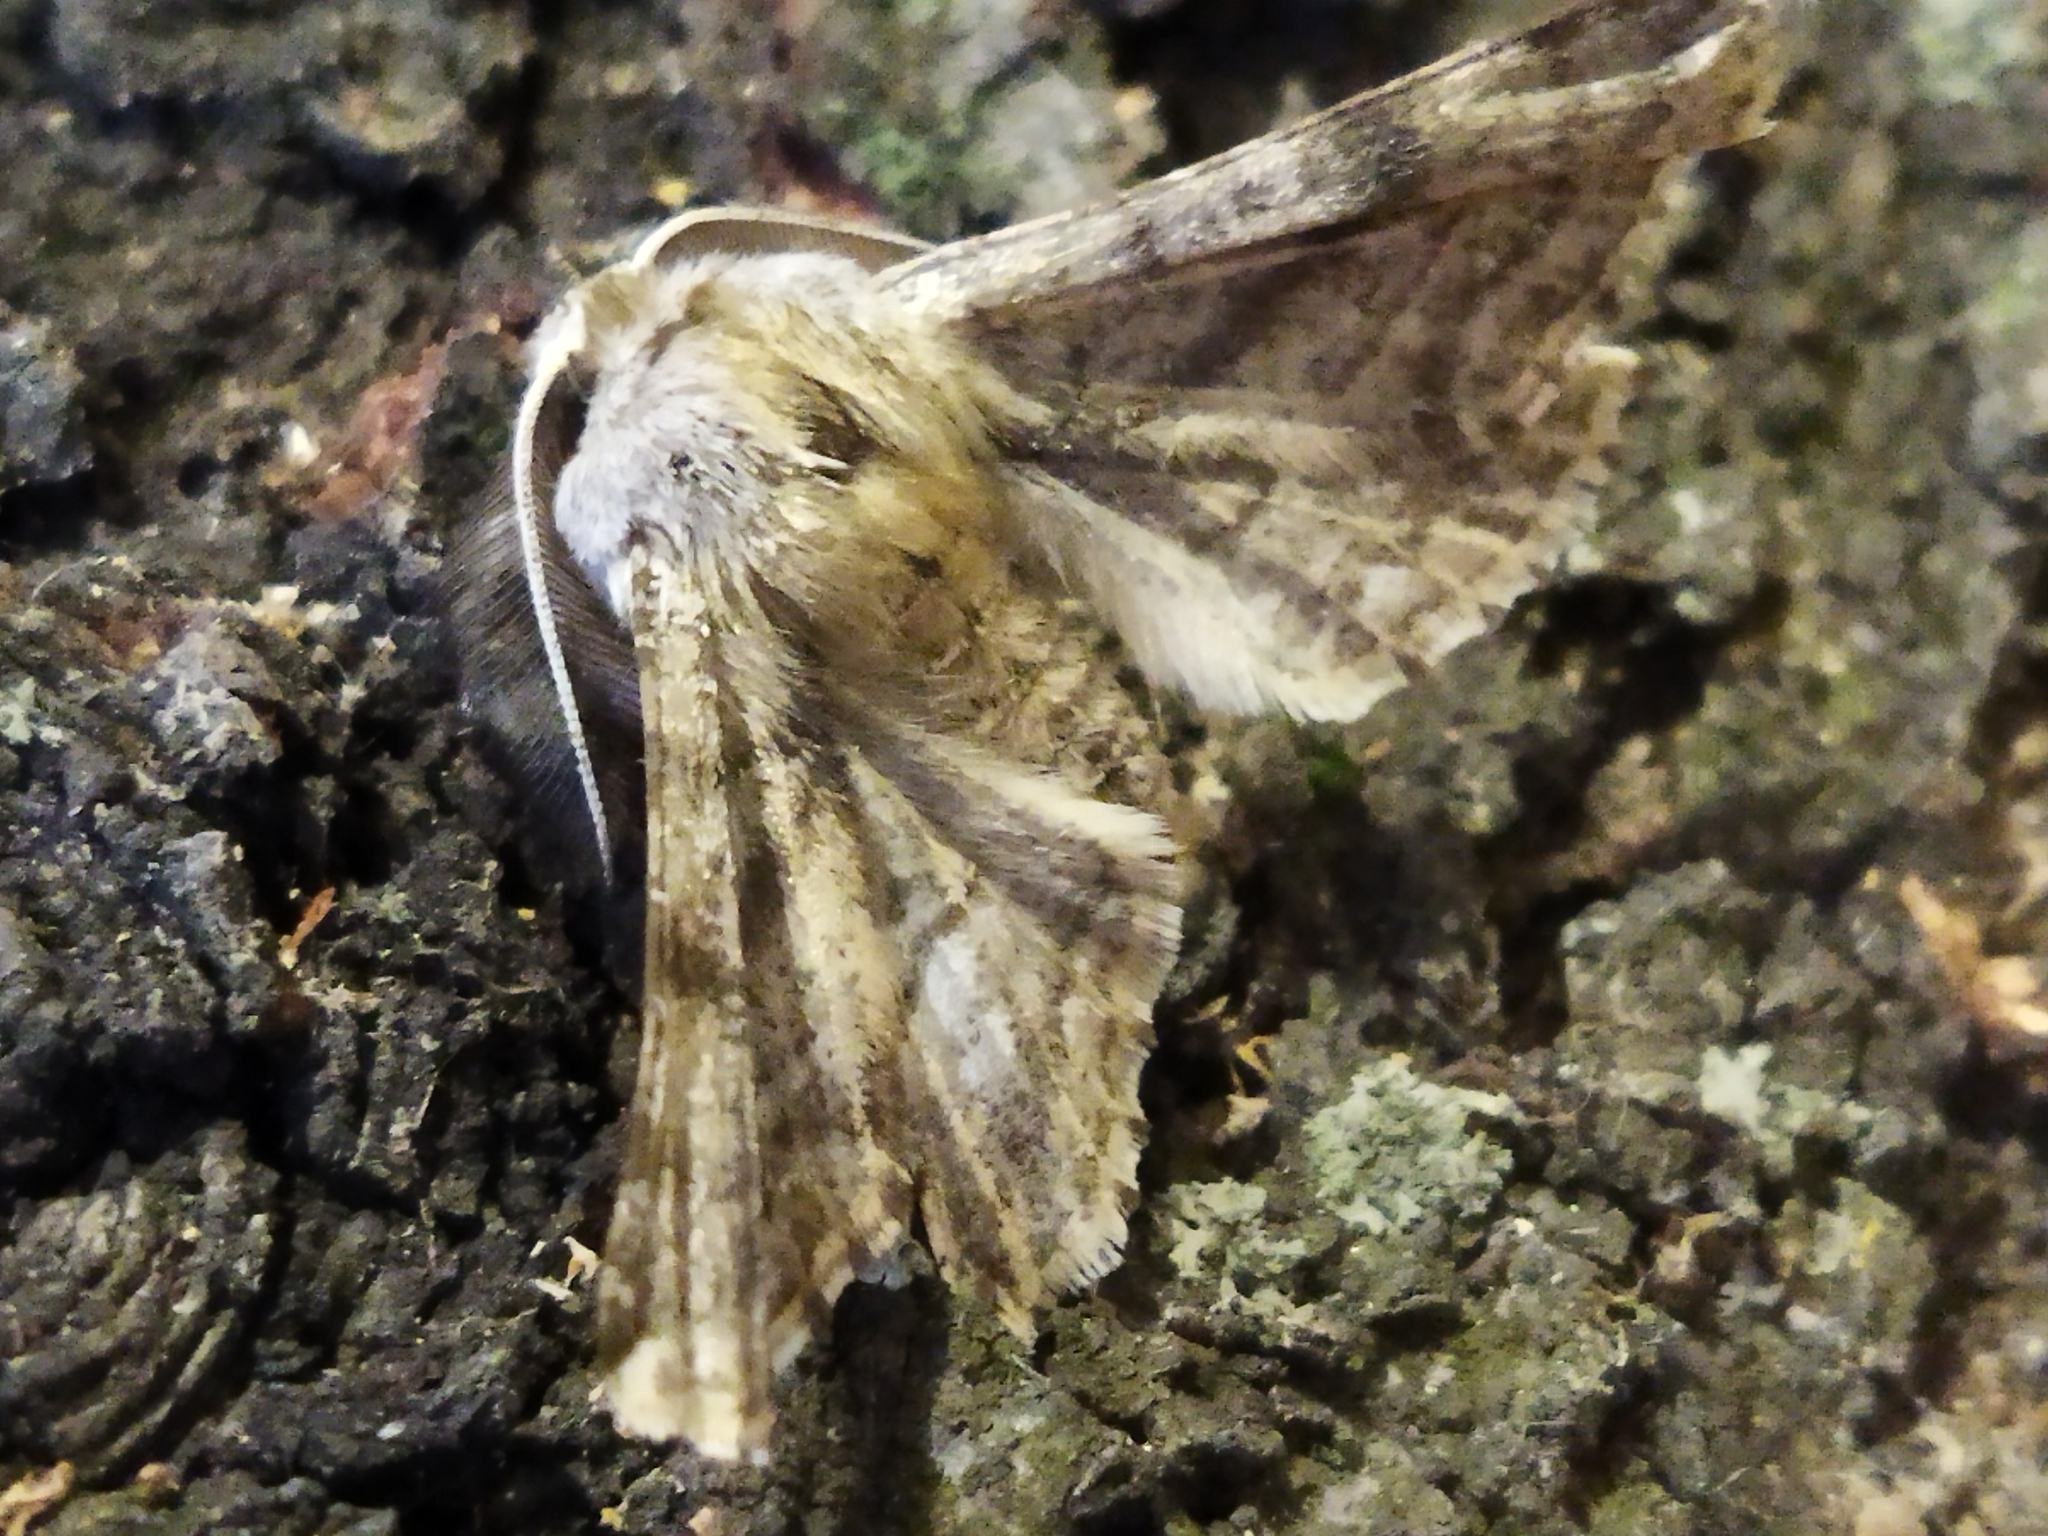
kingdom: Animalia
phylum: Arthropoda
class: Insecta
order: Lepidoptera
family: Geometridae
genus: Apochima
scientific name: Apochima flabellaria
